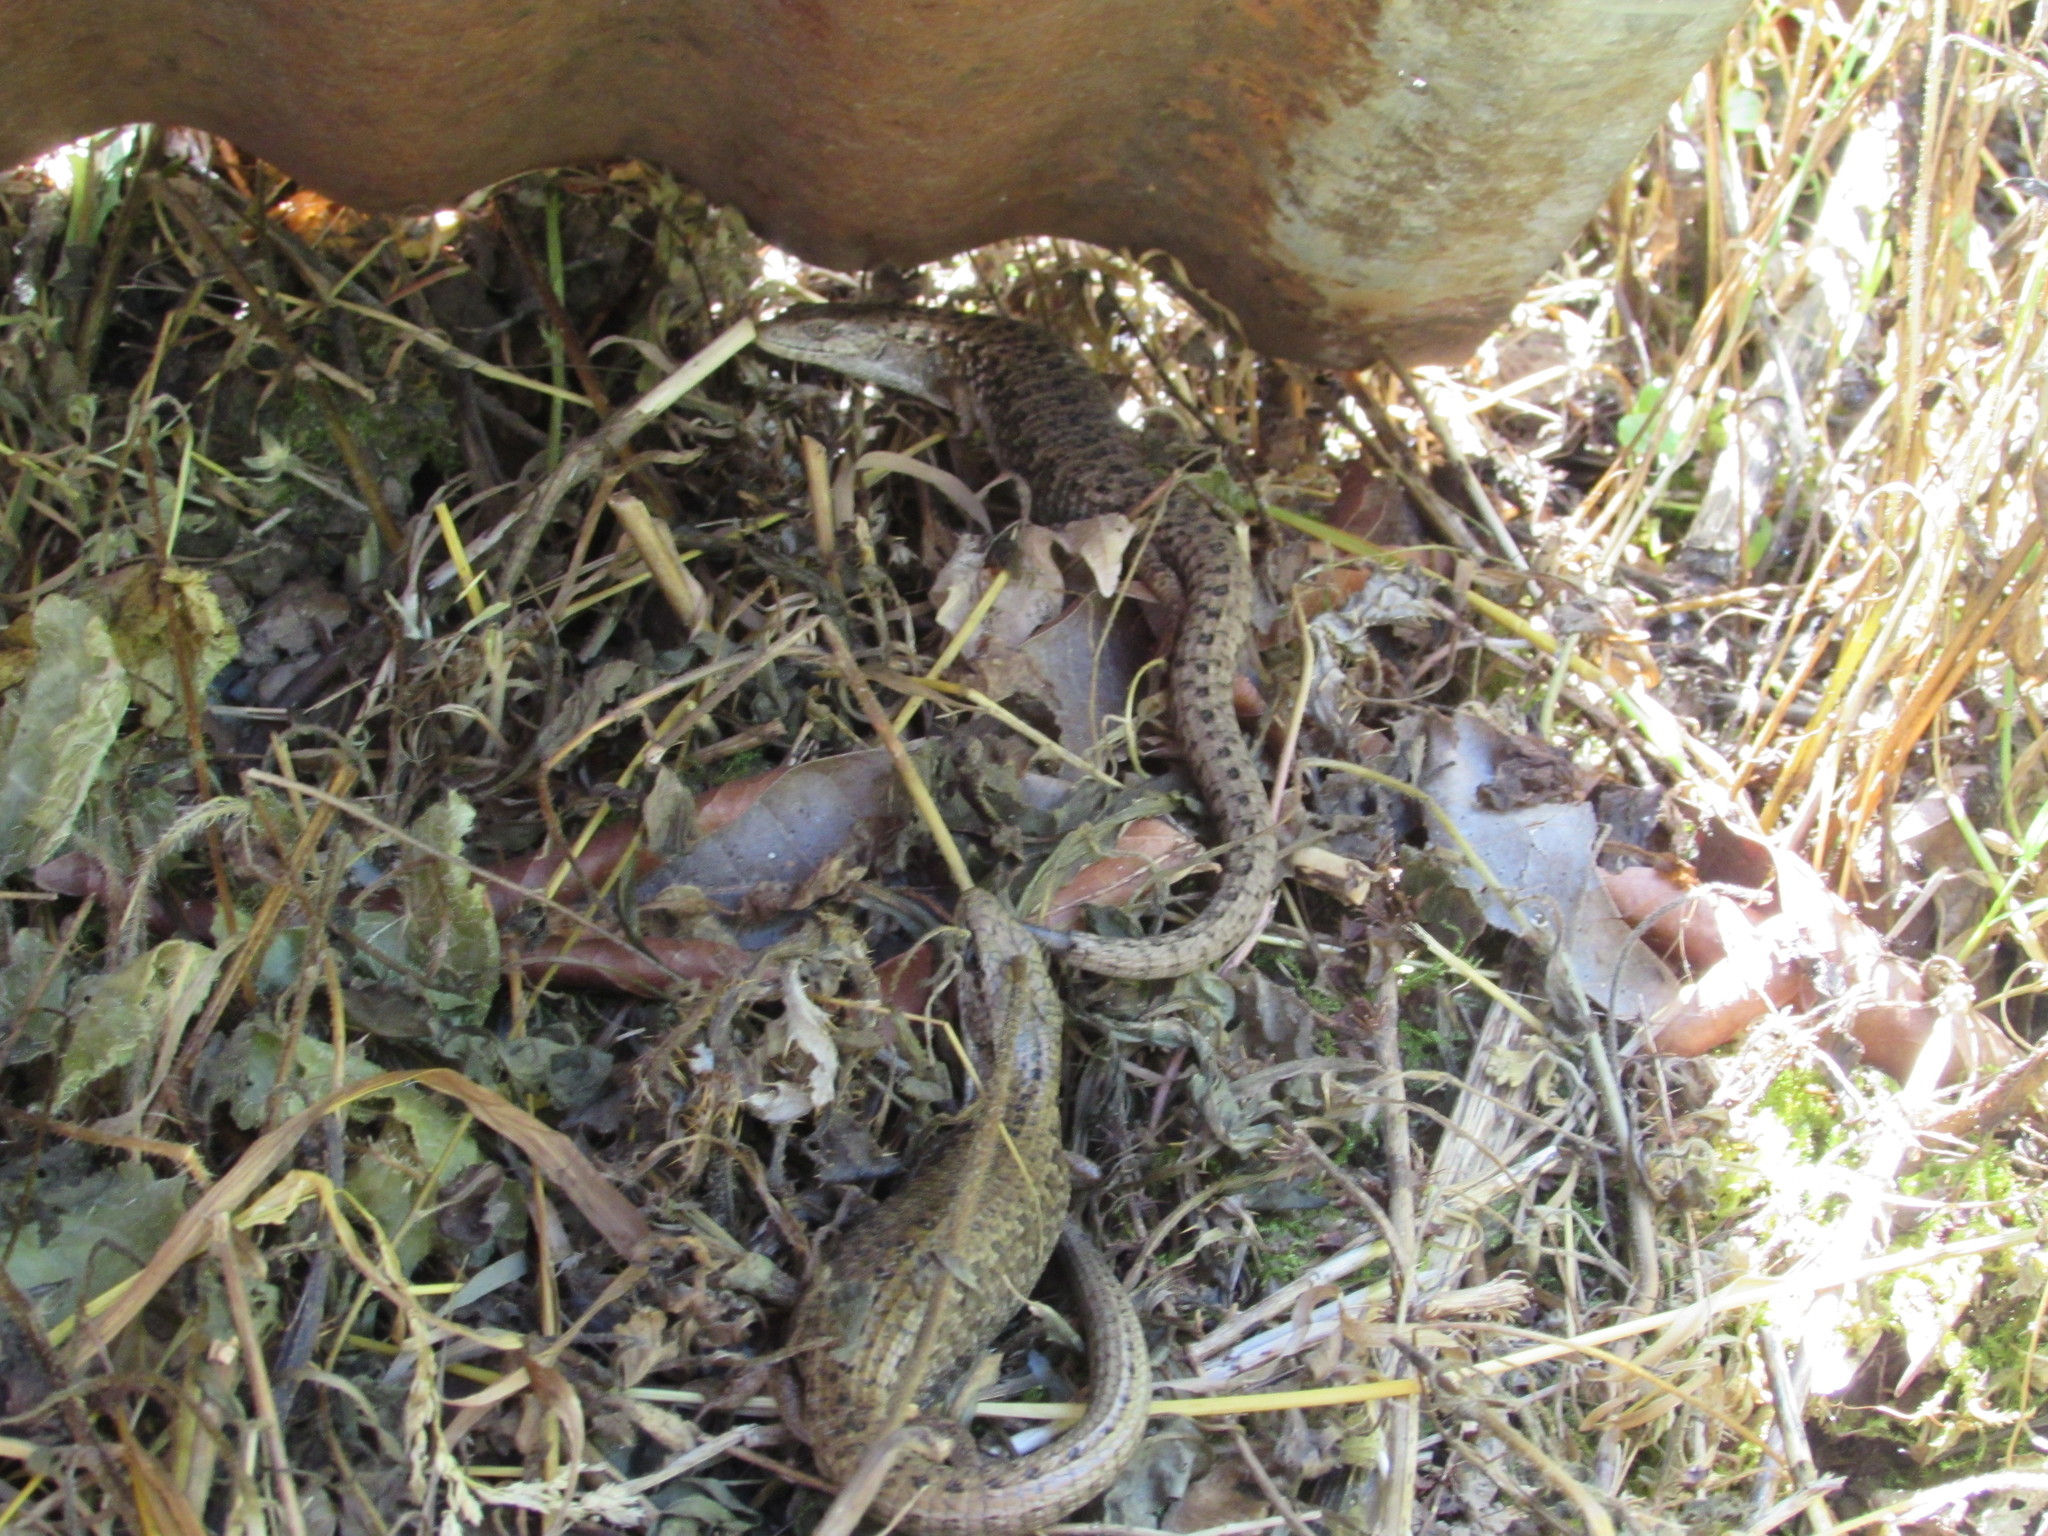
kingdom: Animalia
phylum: Chordata
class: Squamata
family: Anguidae
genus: Elgaria
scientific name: Elgaria coerulea
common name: Northern alligator lizard
